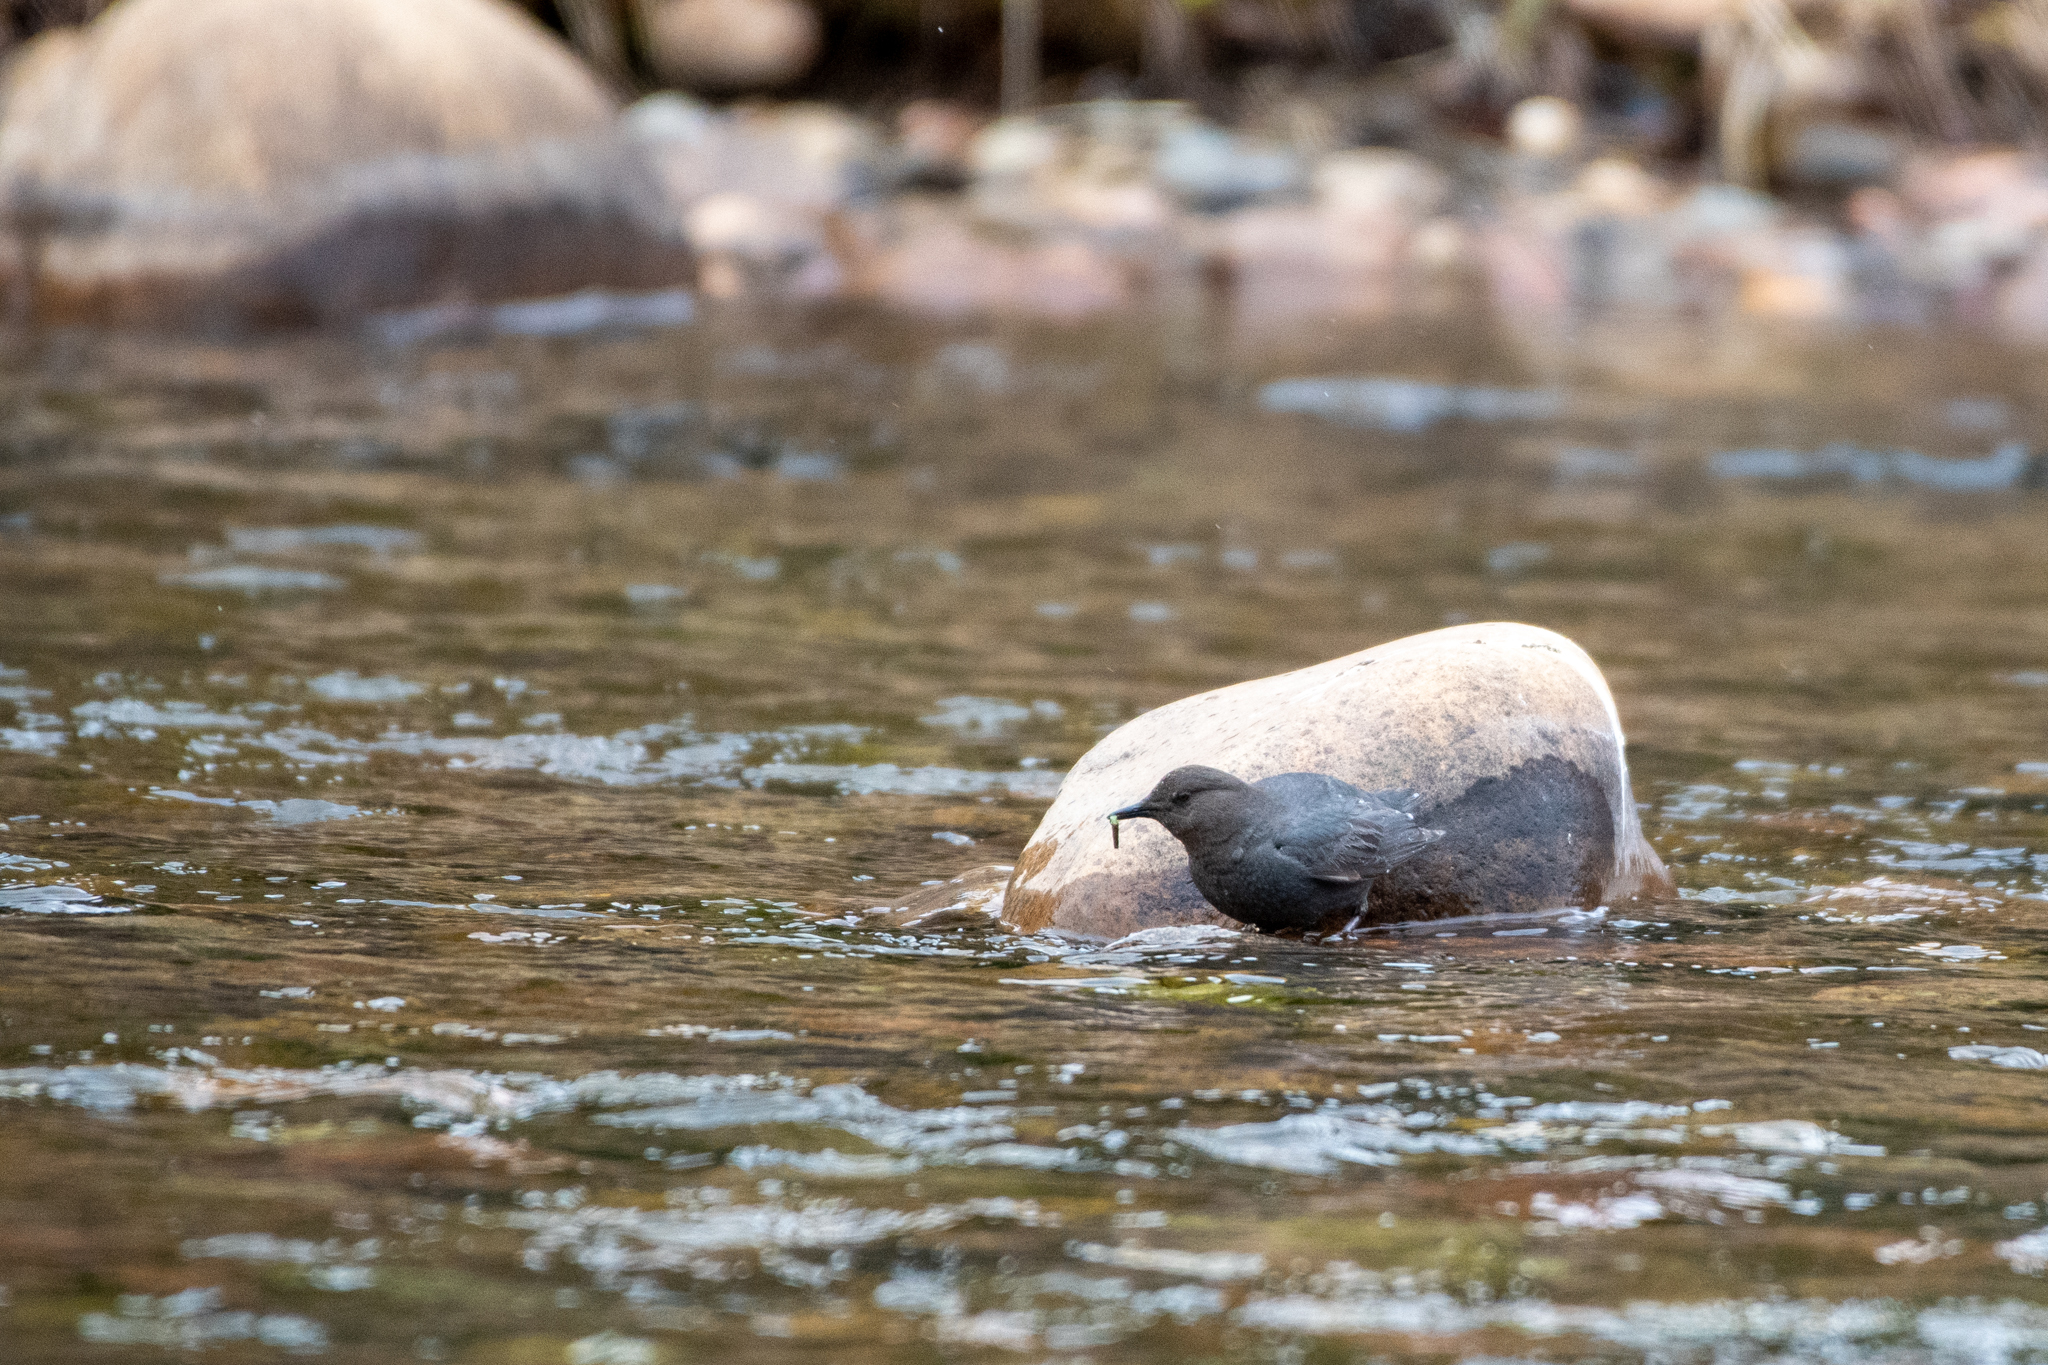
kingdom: Animalia
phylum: Chordata
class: Aves
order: Passeriformes
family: Cinclidae
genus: Cinclus
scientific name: Cinclus mexicanus
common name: American dipper
